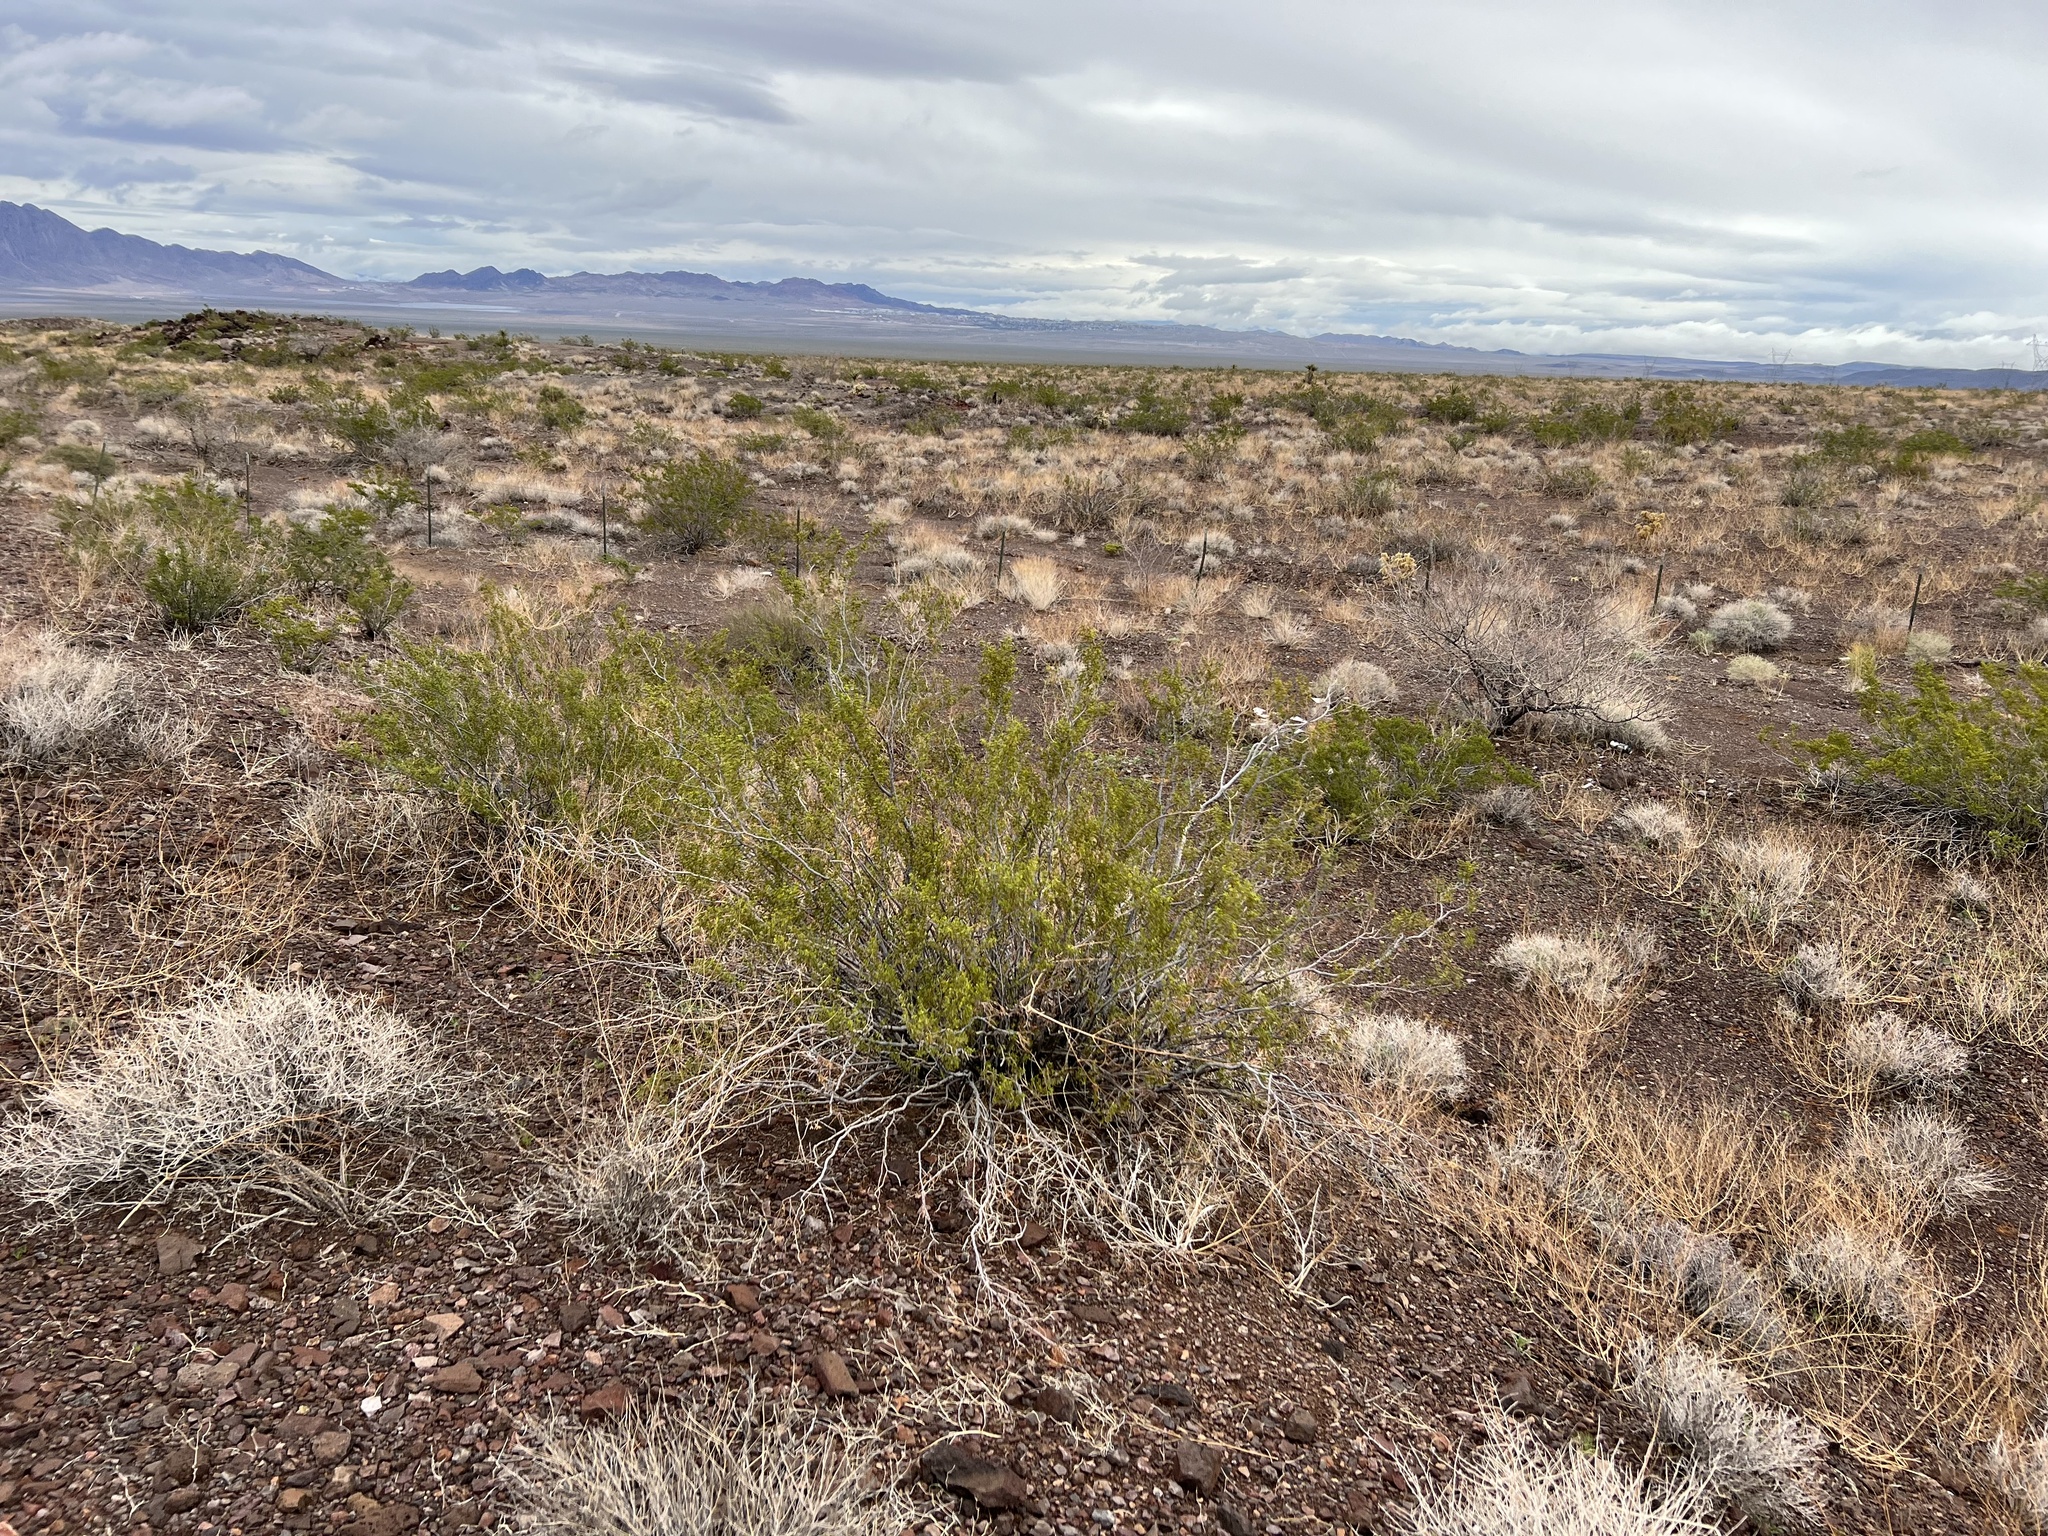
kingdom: Plantae
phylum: Tracheophyta
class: Magnoliopsida
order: Zygophyllales
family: Zygophyllaceae
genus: Larrea
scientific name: Larrea tridentata
